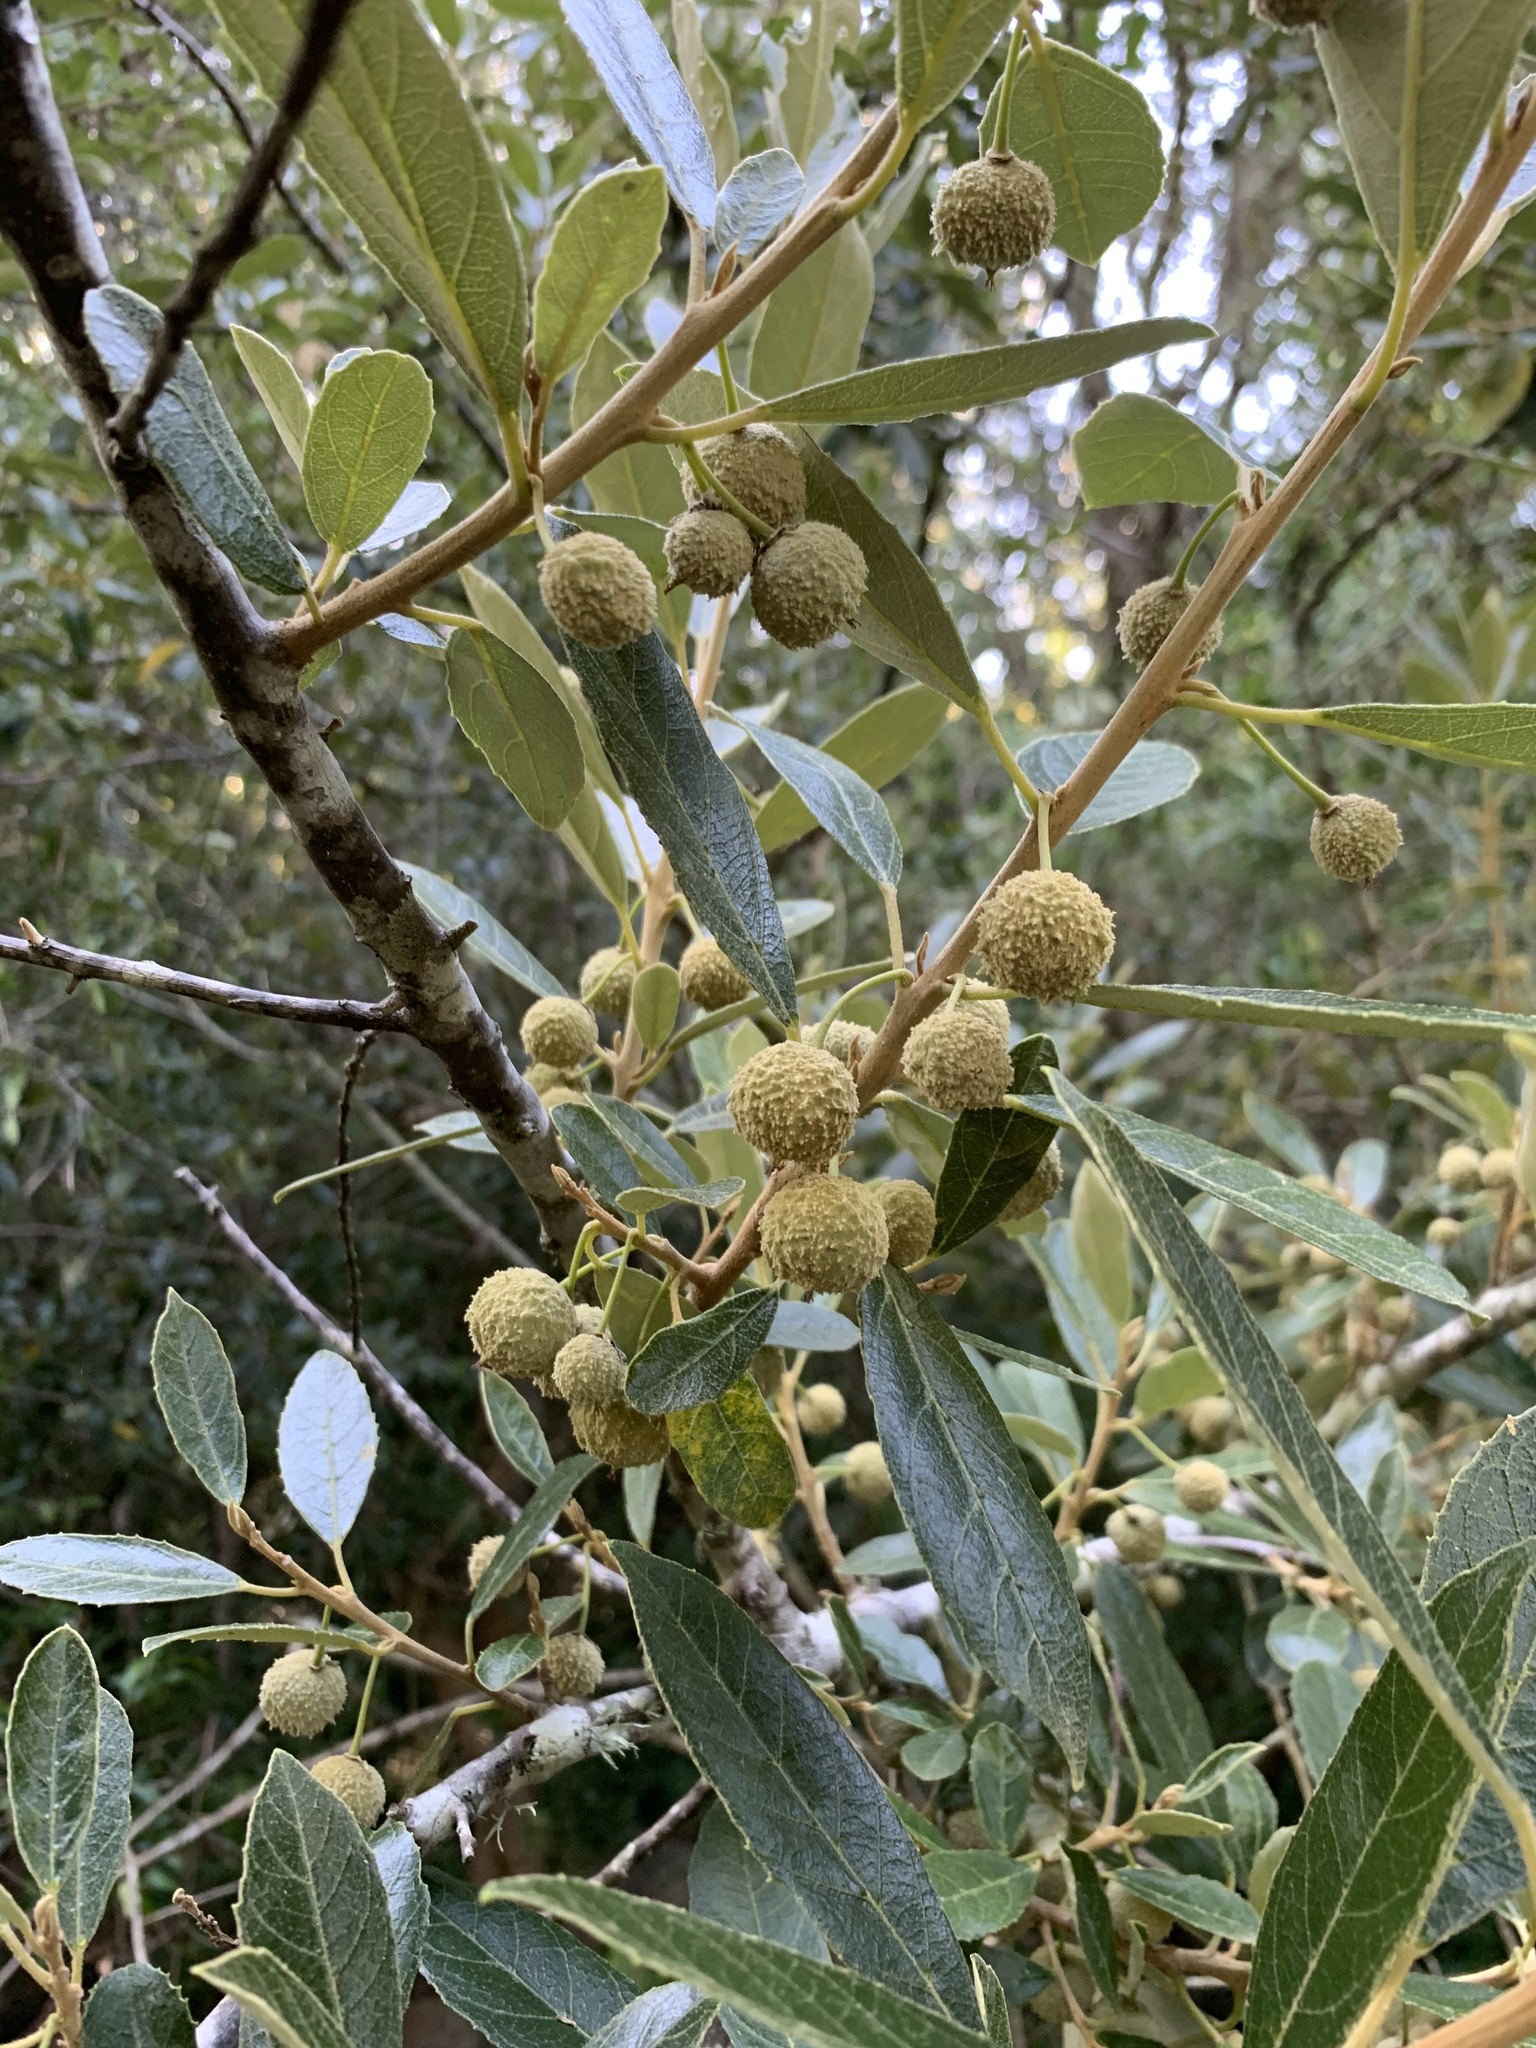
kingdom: Plantae
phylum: Tracheophyta
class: Magnoliopsida
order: Malpighiales
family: Achariaceae
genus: Kiggelaria
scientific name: Kiggelaria africana
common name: Wild peach
